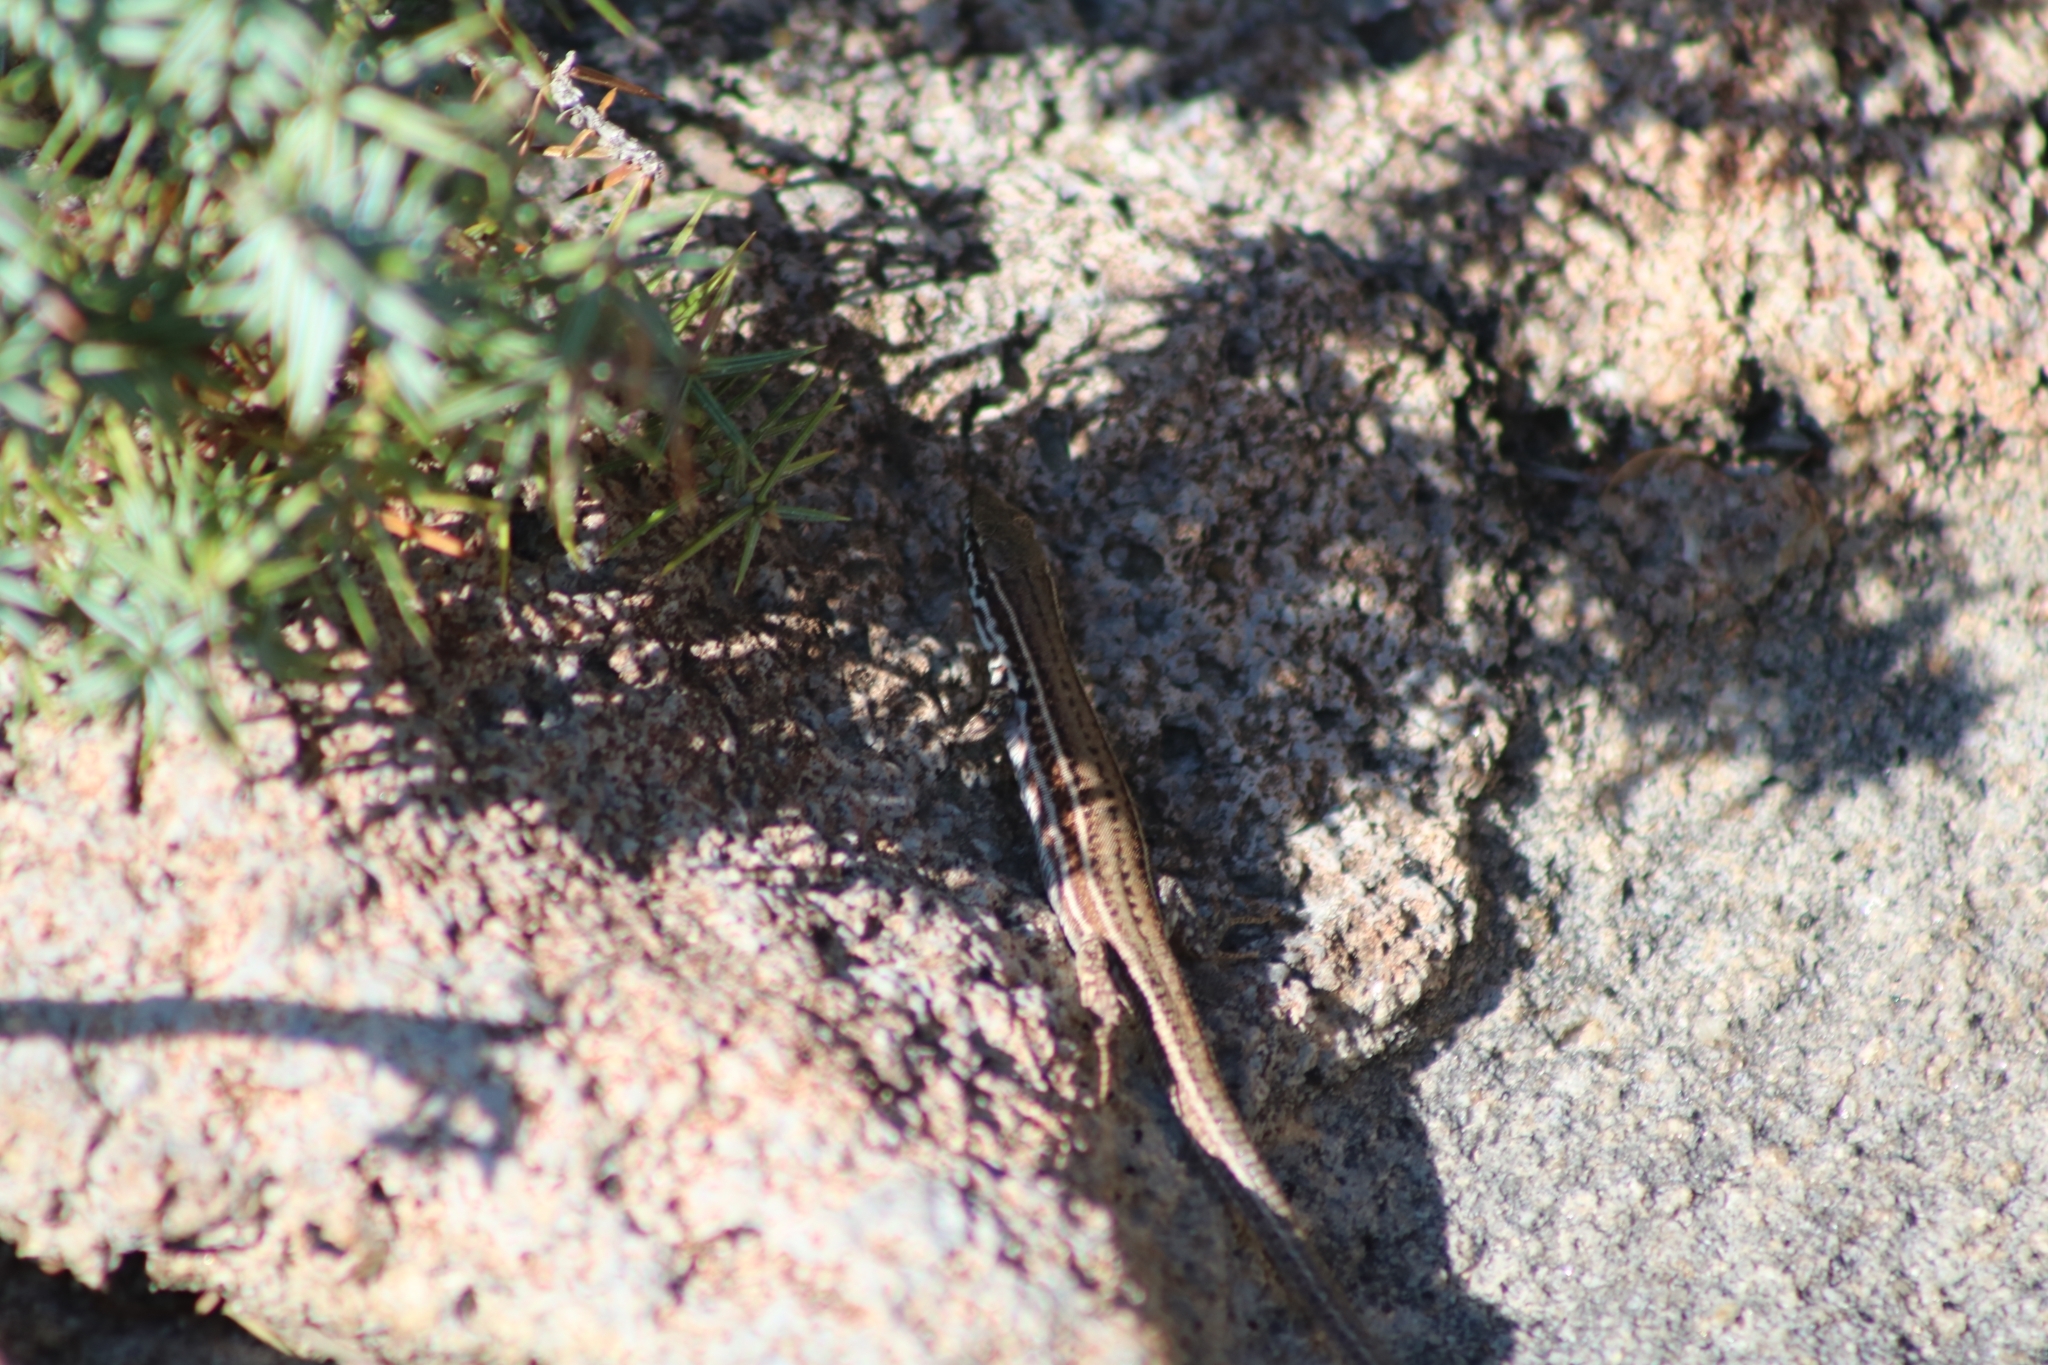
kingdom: Animalia
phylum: Chordata
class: Squamata
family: Lacertidae
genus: Podarcis
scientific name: Podarcis milensis
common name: Milos wall lizard
